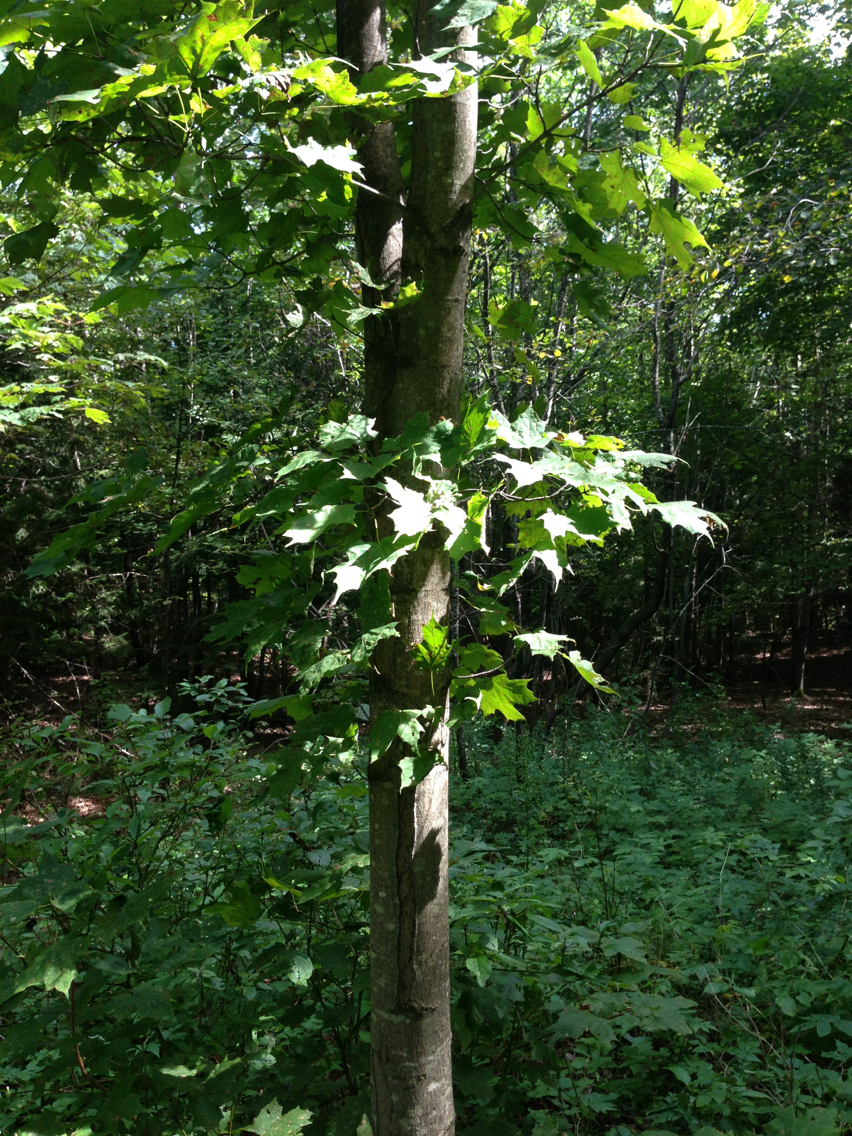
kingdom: Plantae
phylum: Tracheophyta
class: Magnoliopsida
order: Sapindales
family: Sapindaceae
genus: Acer
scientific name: Acer saccharum
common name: Sugar maple
